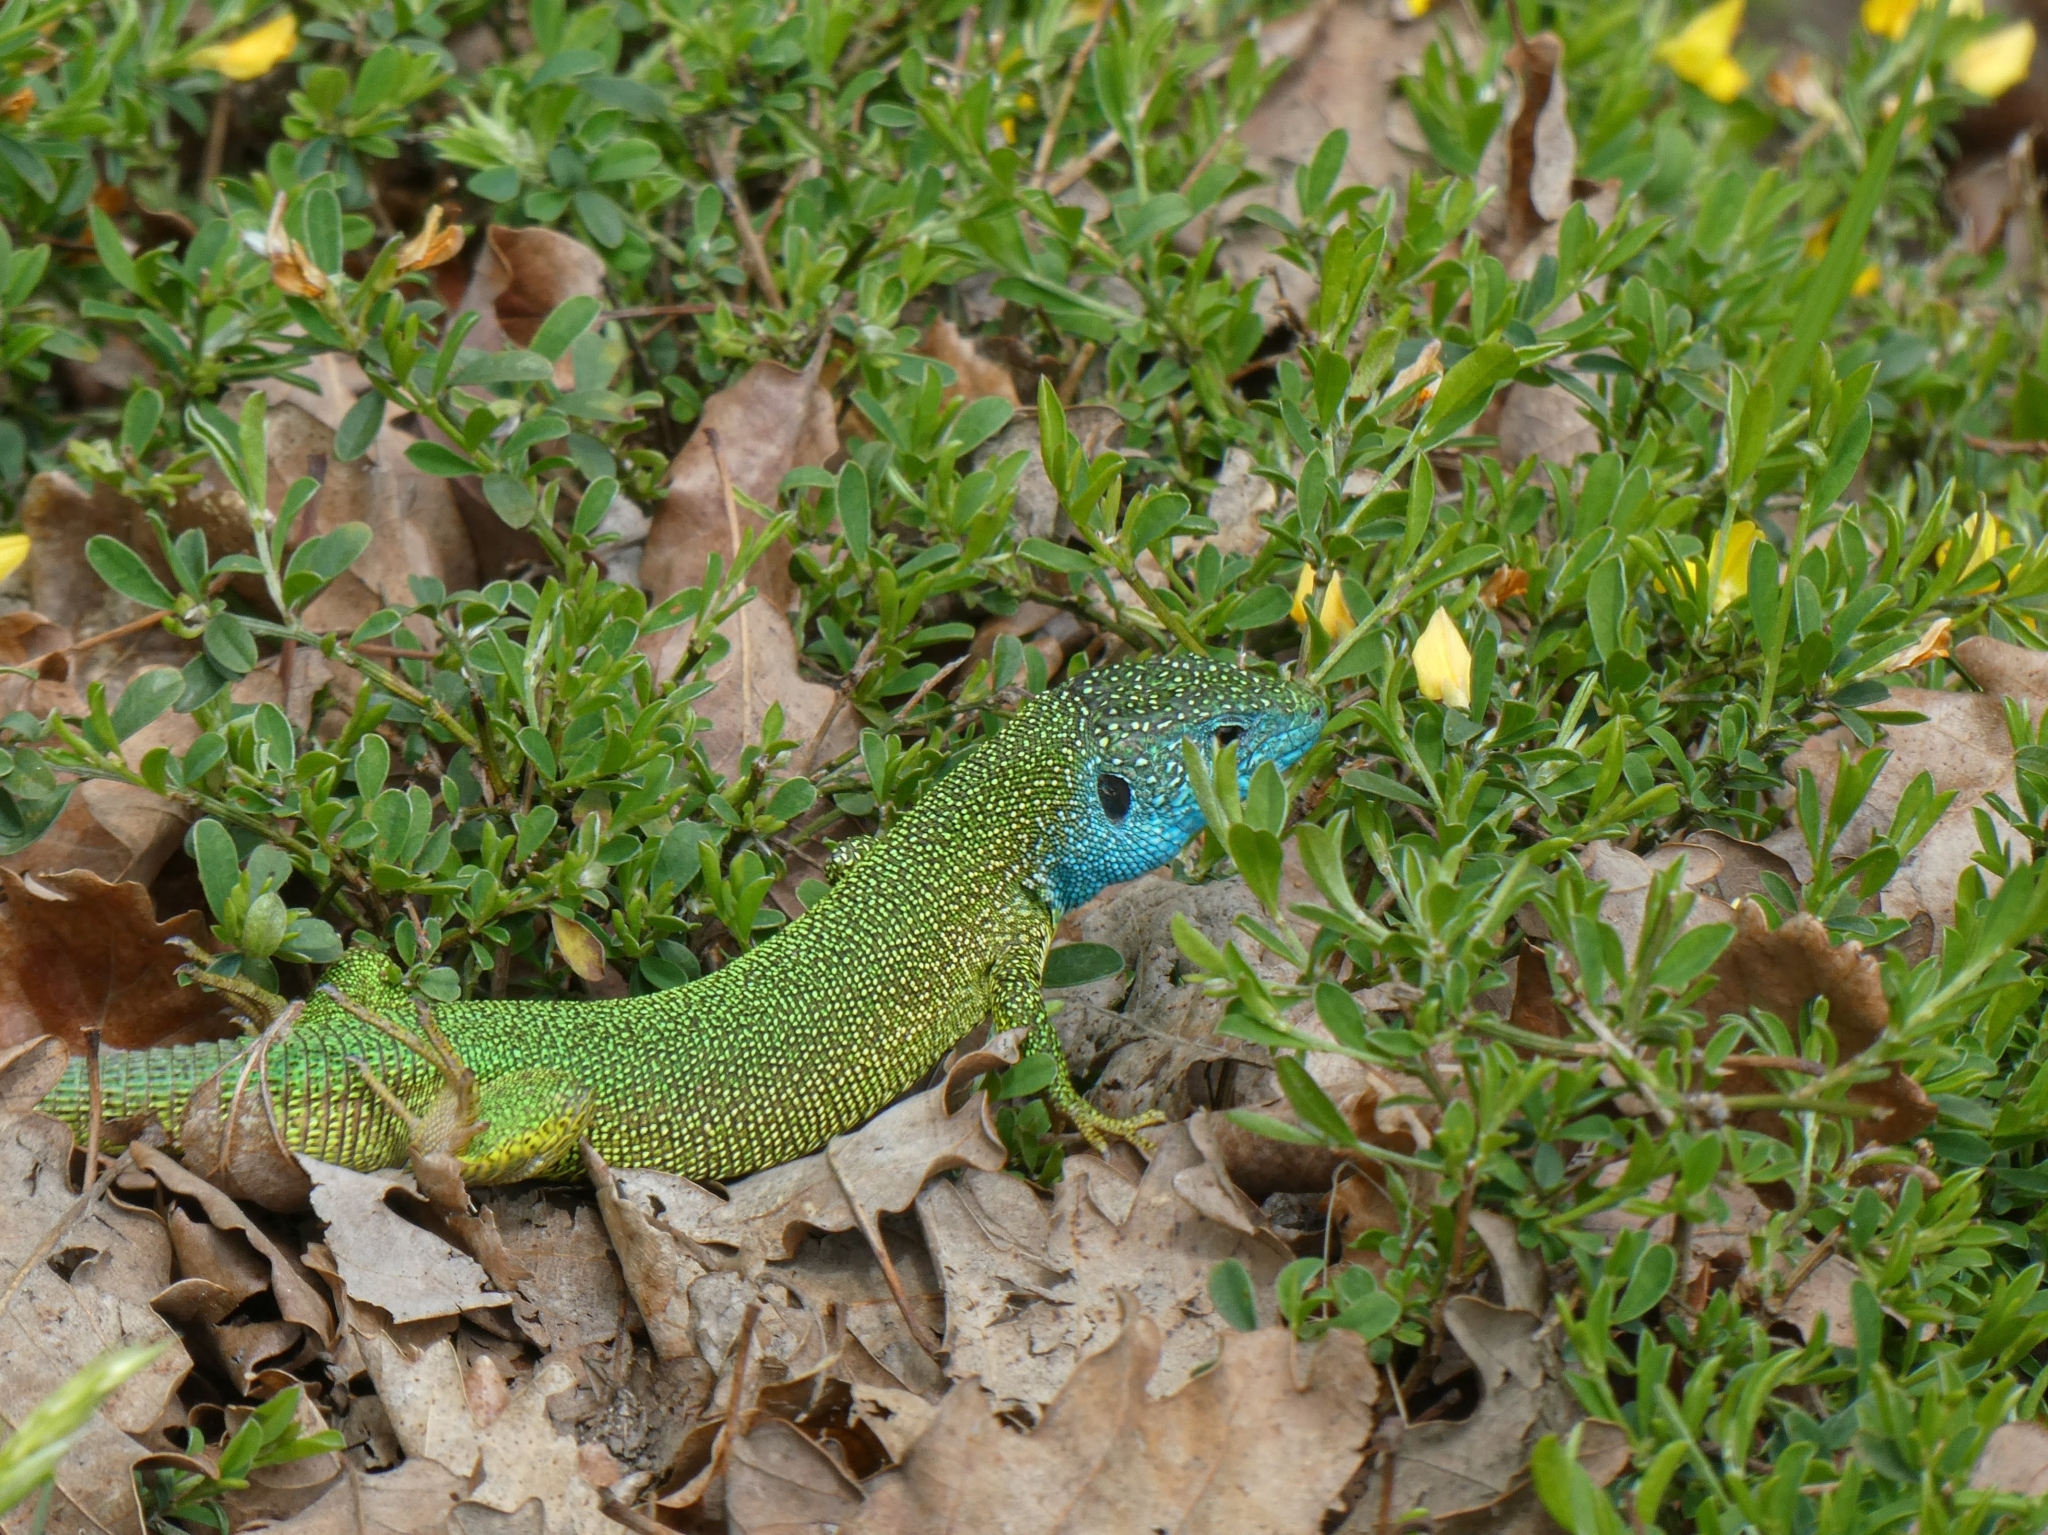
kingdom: Animalia
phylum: Chordata
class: Squamata
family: Lacertidae
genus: Lacerta
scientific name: Lacerta viridis
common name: European green lizard
